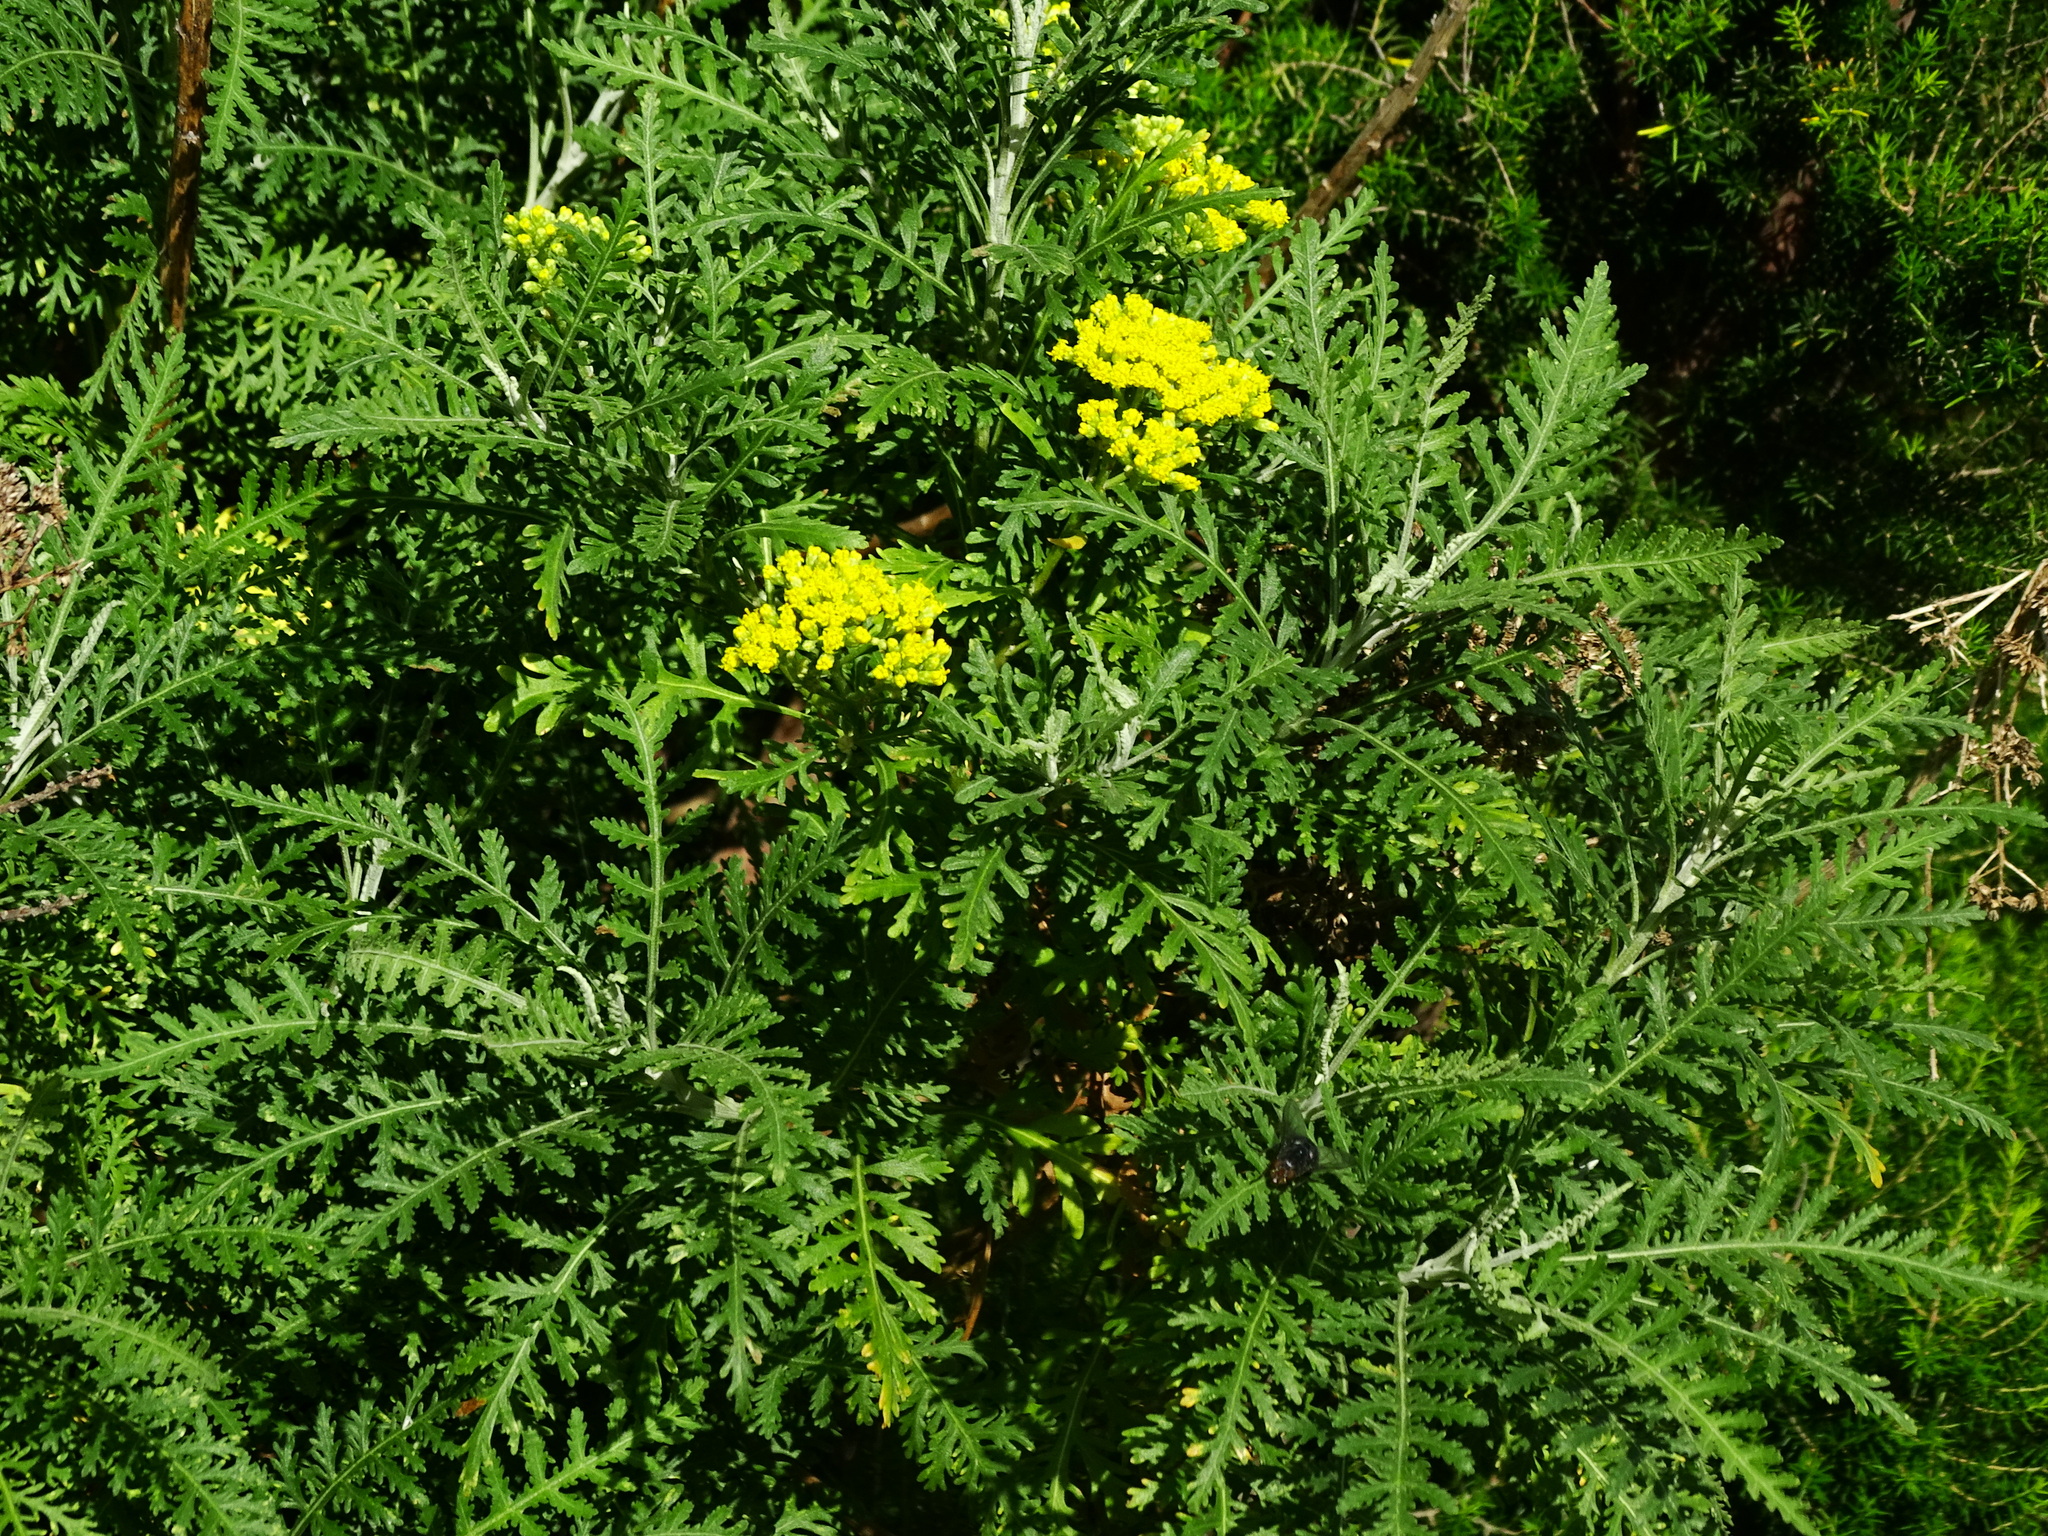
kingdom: Plantae
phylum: Tracheophyta
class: Magnoliopsida
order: Asterales
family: Asteraceae
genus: Gonospermum
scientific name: Gonospermum canariense
